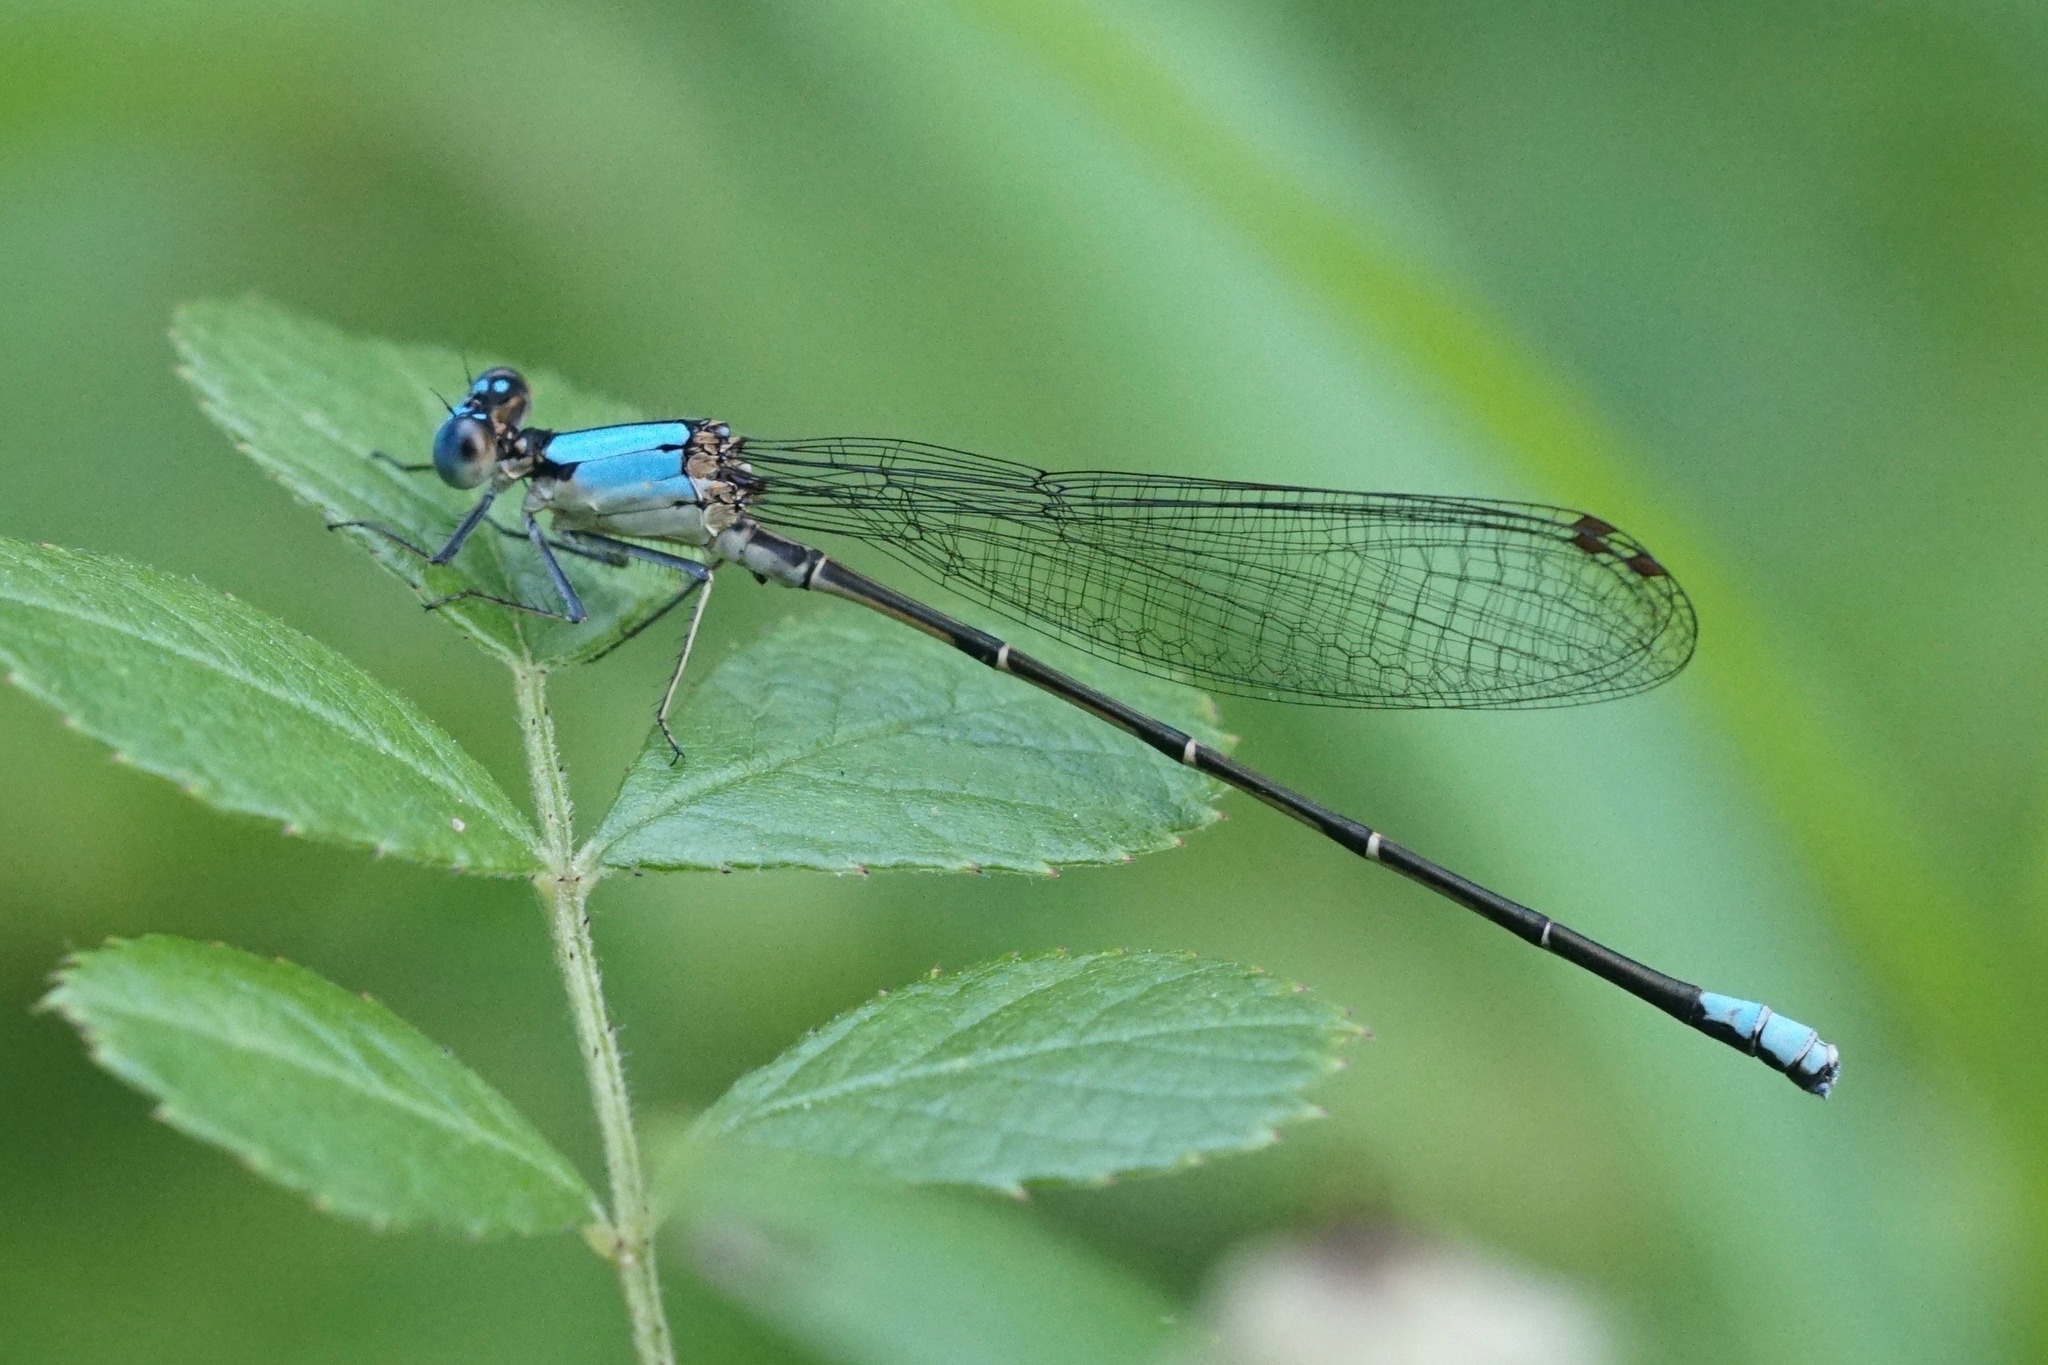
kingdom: Animalia
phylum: Arthropoda
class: Insecta
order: Odonata
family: Coenagrionidae
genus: Argia
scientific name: Argia apicalis
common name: Blue-fronted dancer
